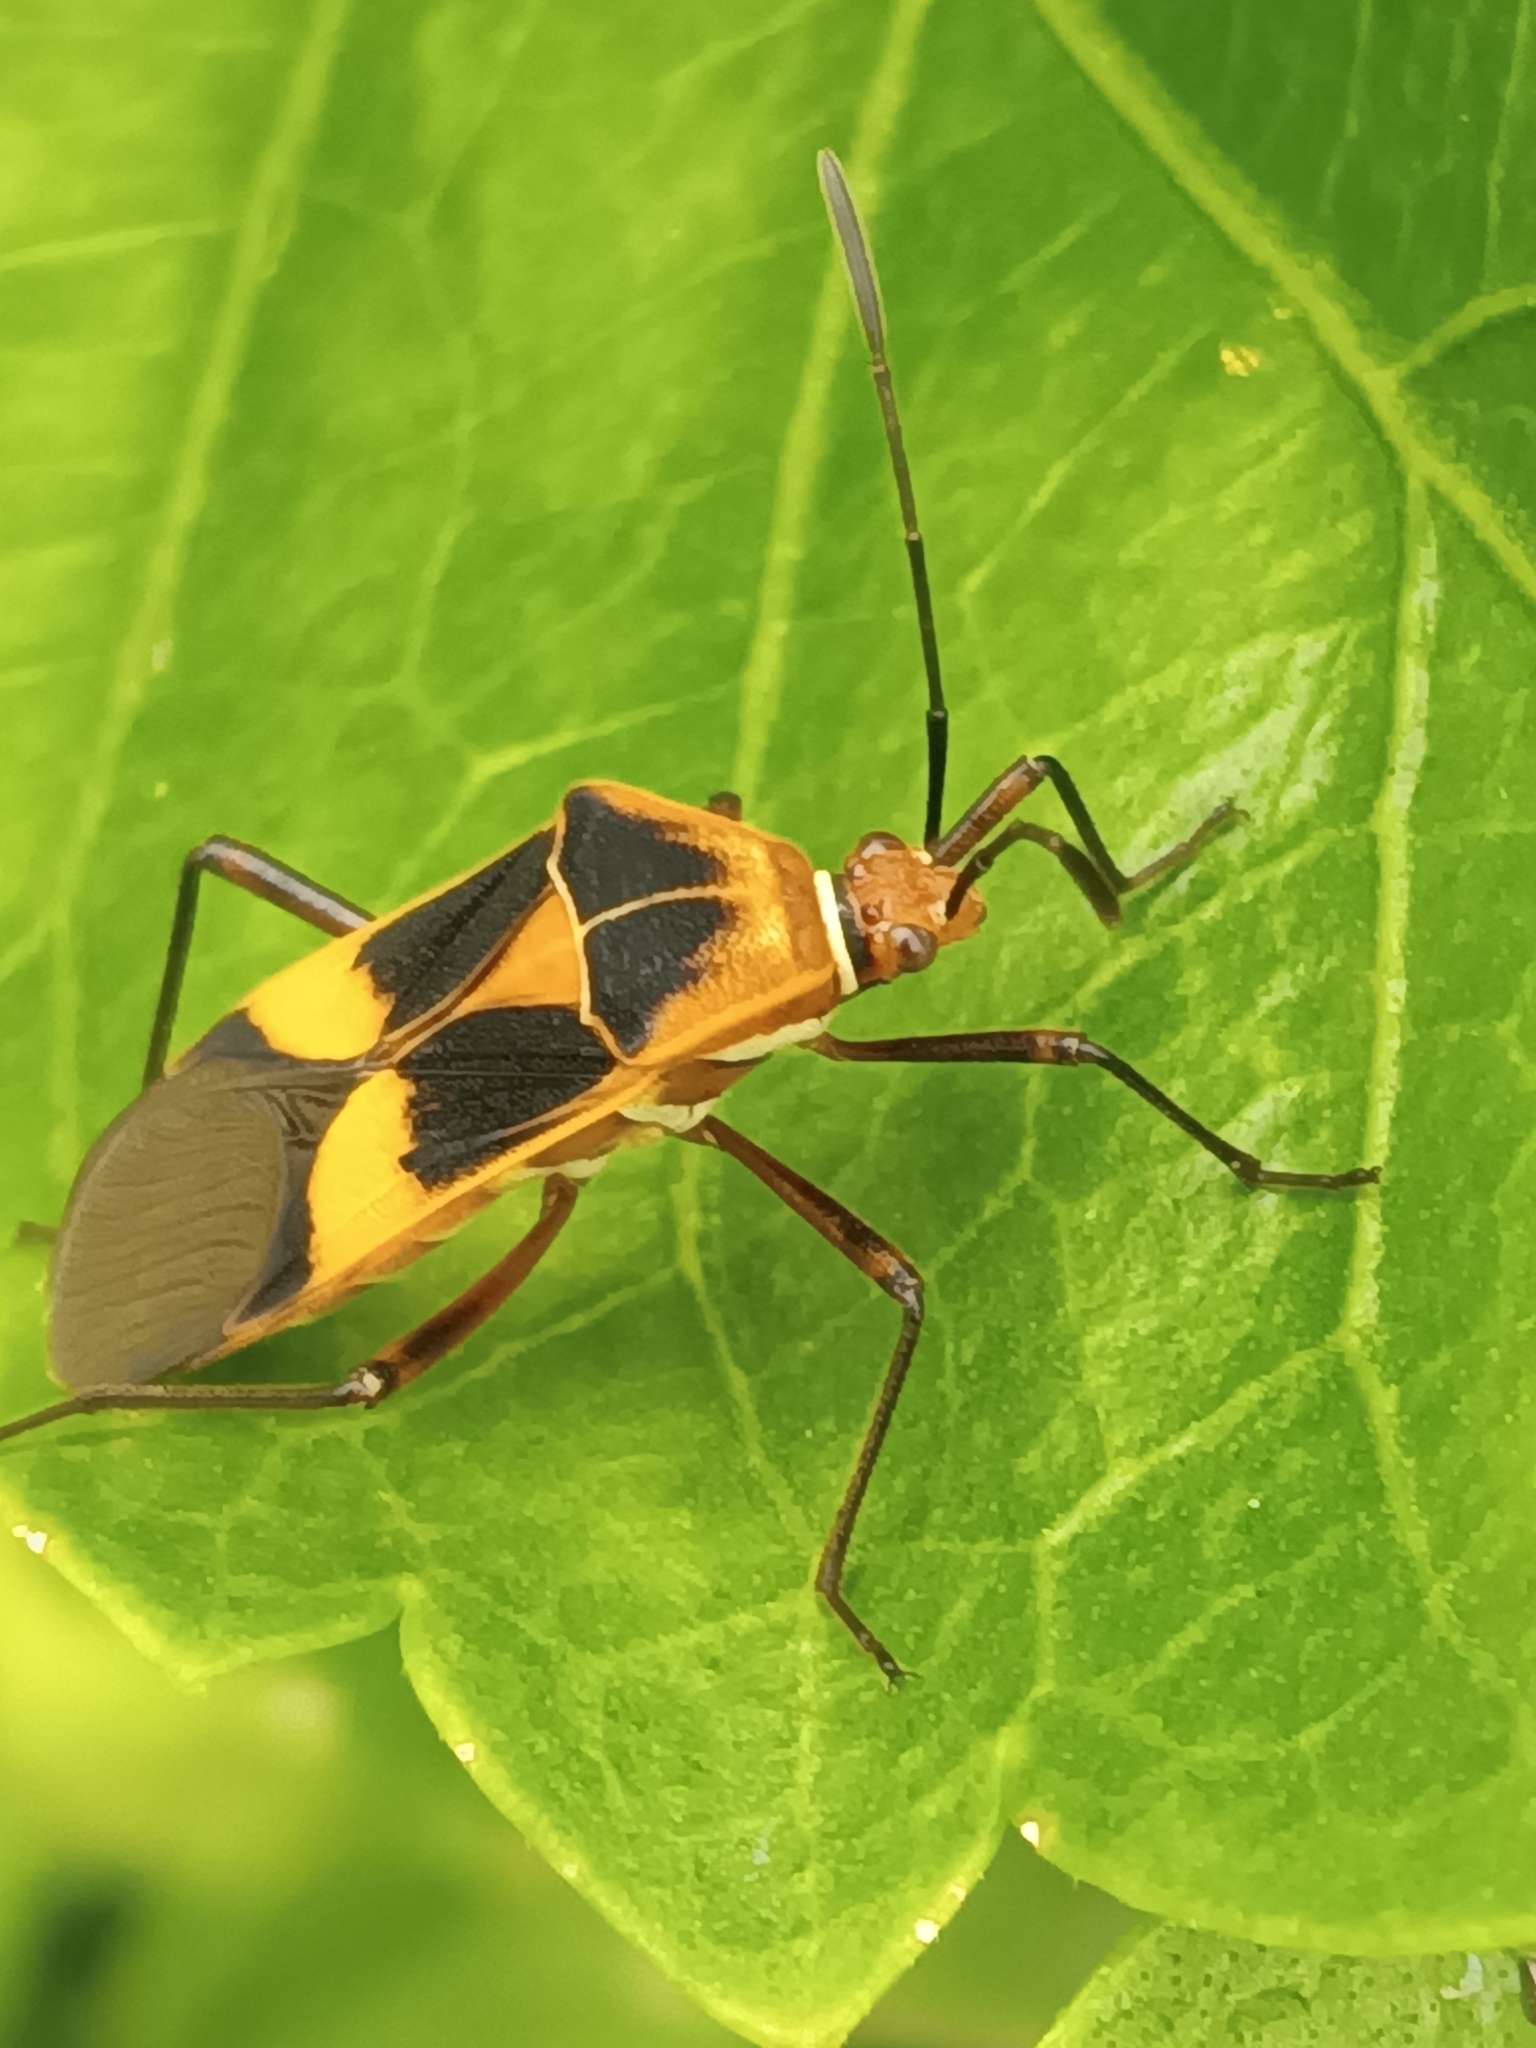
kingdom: Animalia
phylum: Arthropoda
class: Insecta
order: Hemiptera
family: Coreidae
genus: Hypselonotus
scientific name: Hypselonotus interruptus
